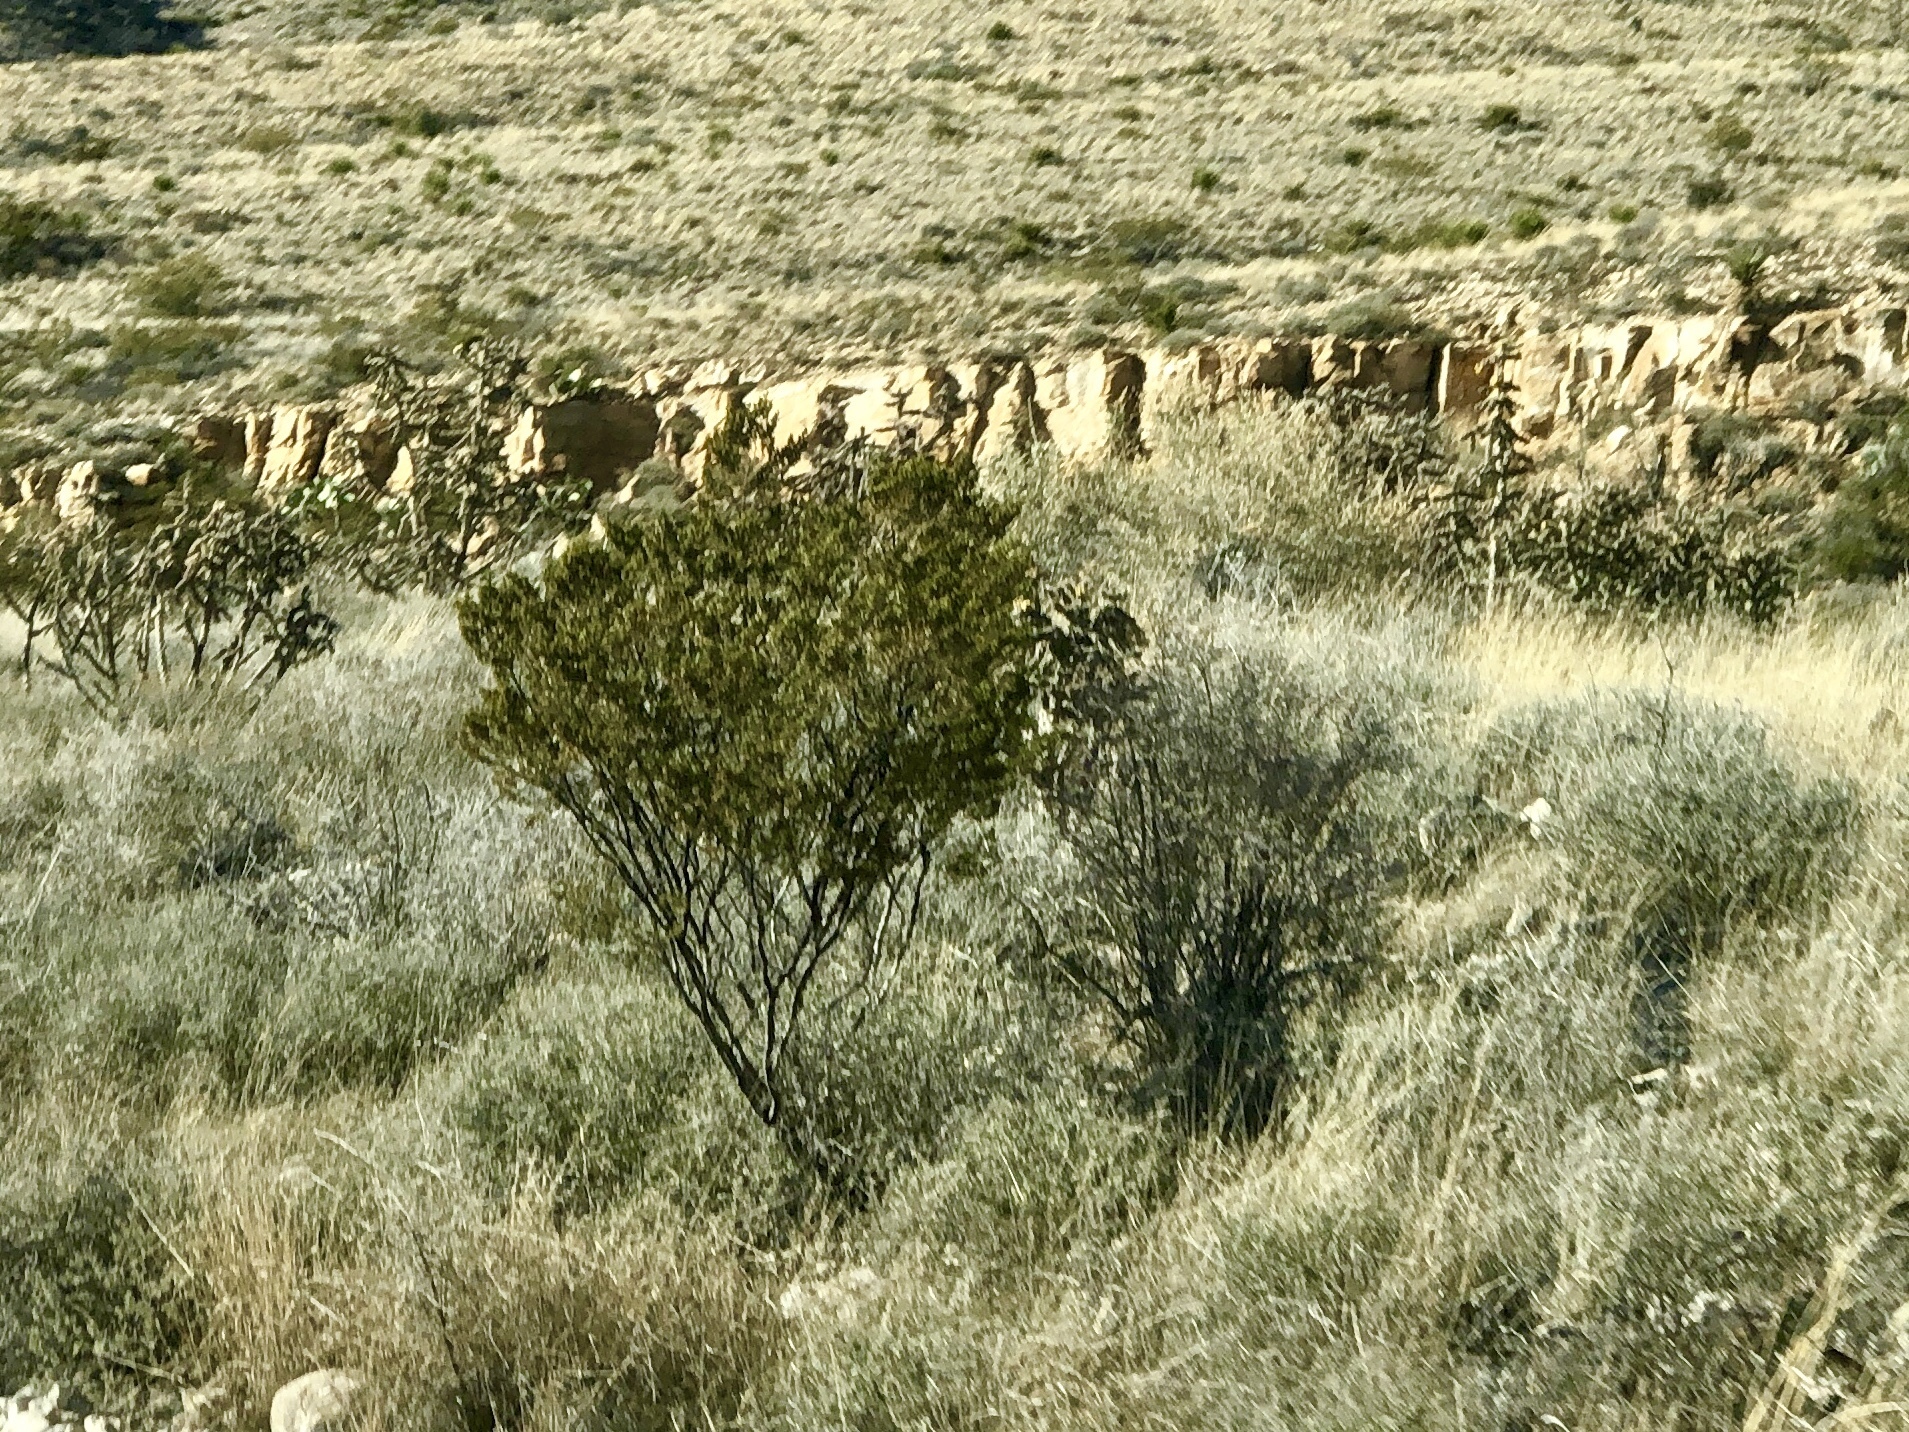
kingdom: Plantae
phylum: Tracheophyta
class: Magnoliopsida
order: Zygophyllales
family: Zygophyllaceae
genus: Larrea
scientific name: Larrea tridentata
